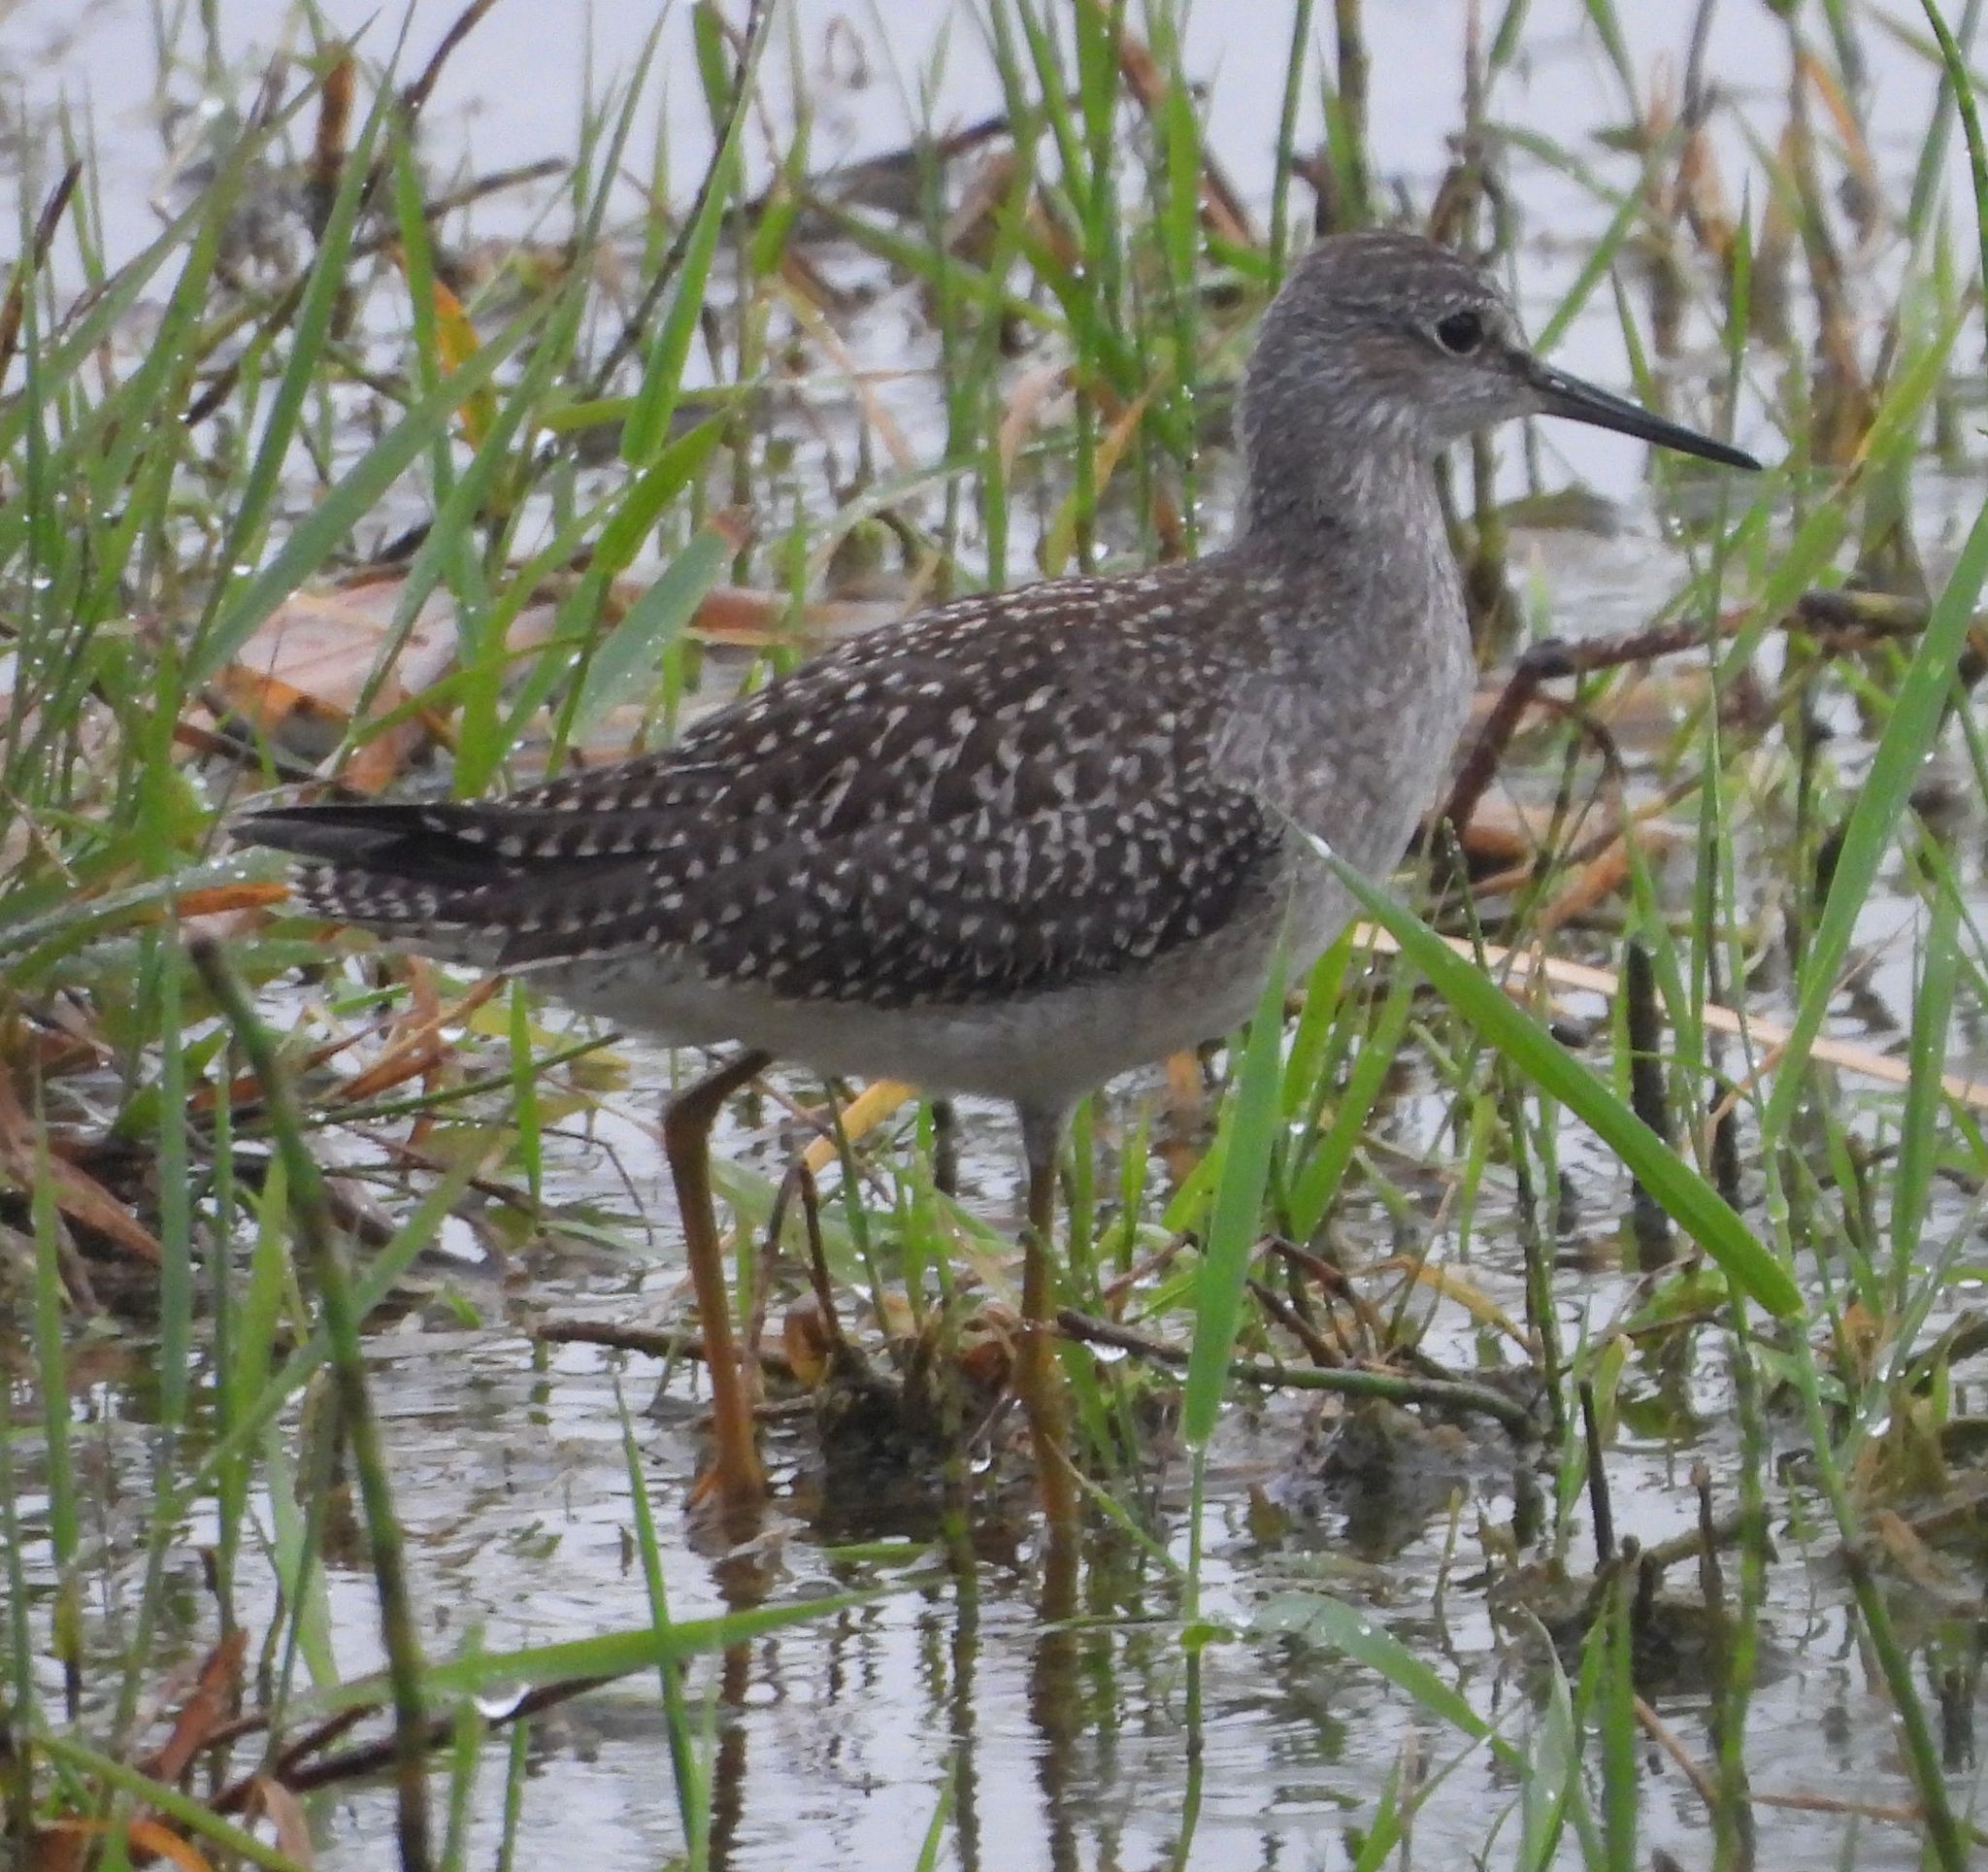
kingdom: Animalia
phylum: Chordata
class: Aves
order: Charadriiformes
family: Scolopacidae
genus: Tringa
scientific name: Tringa flavipes
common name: Lesser yellowlegs
